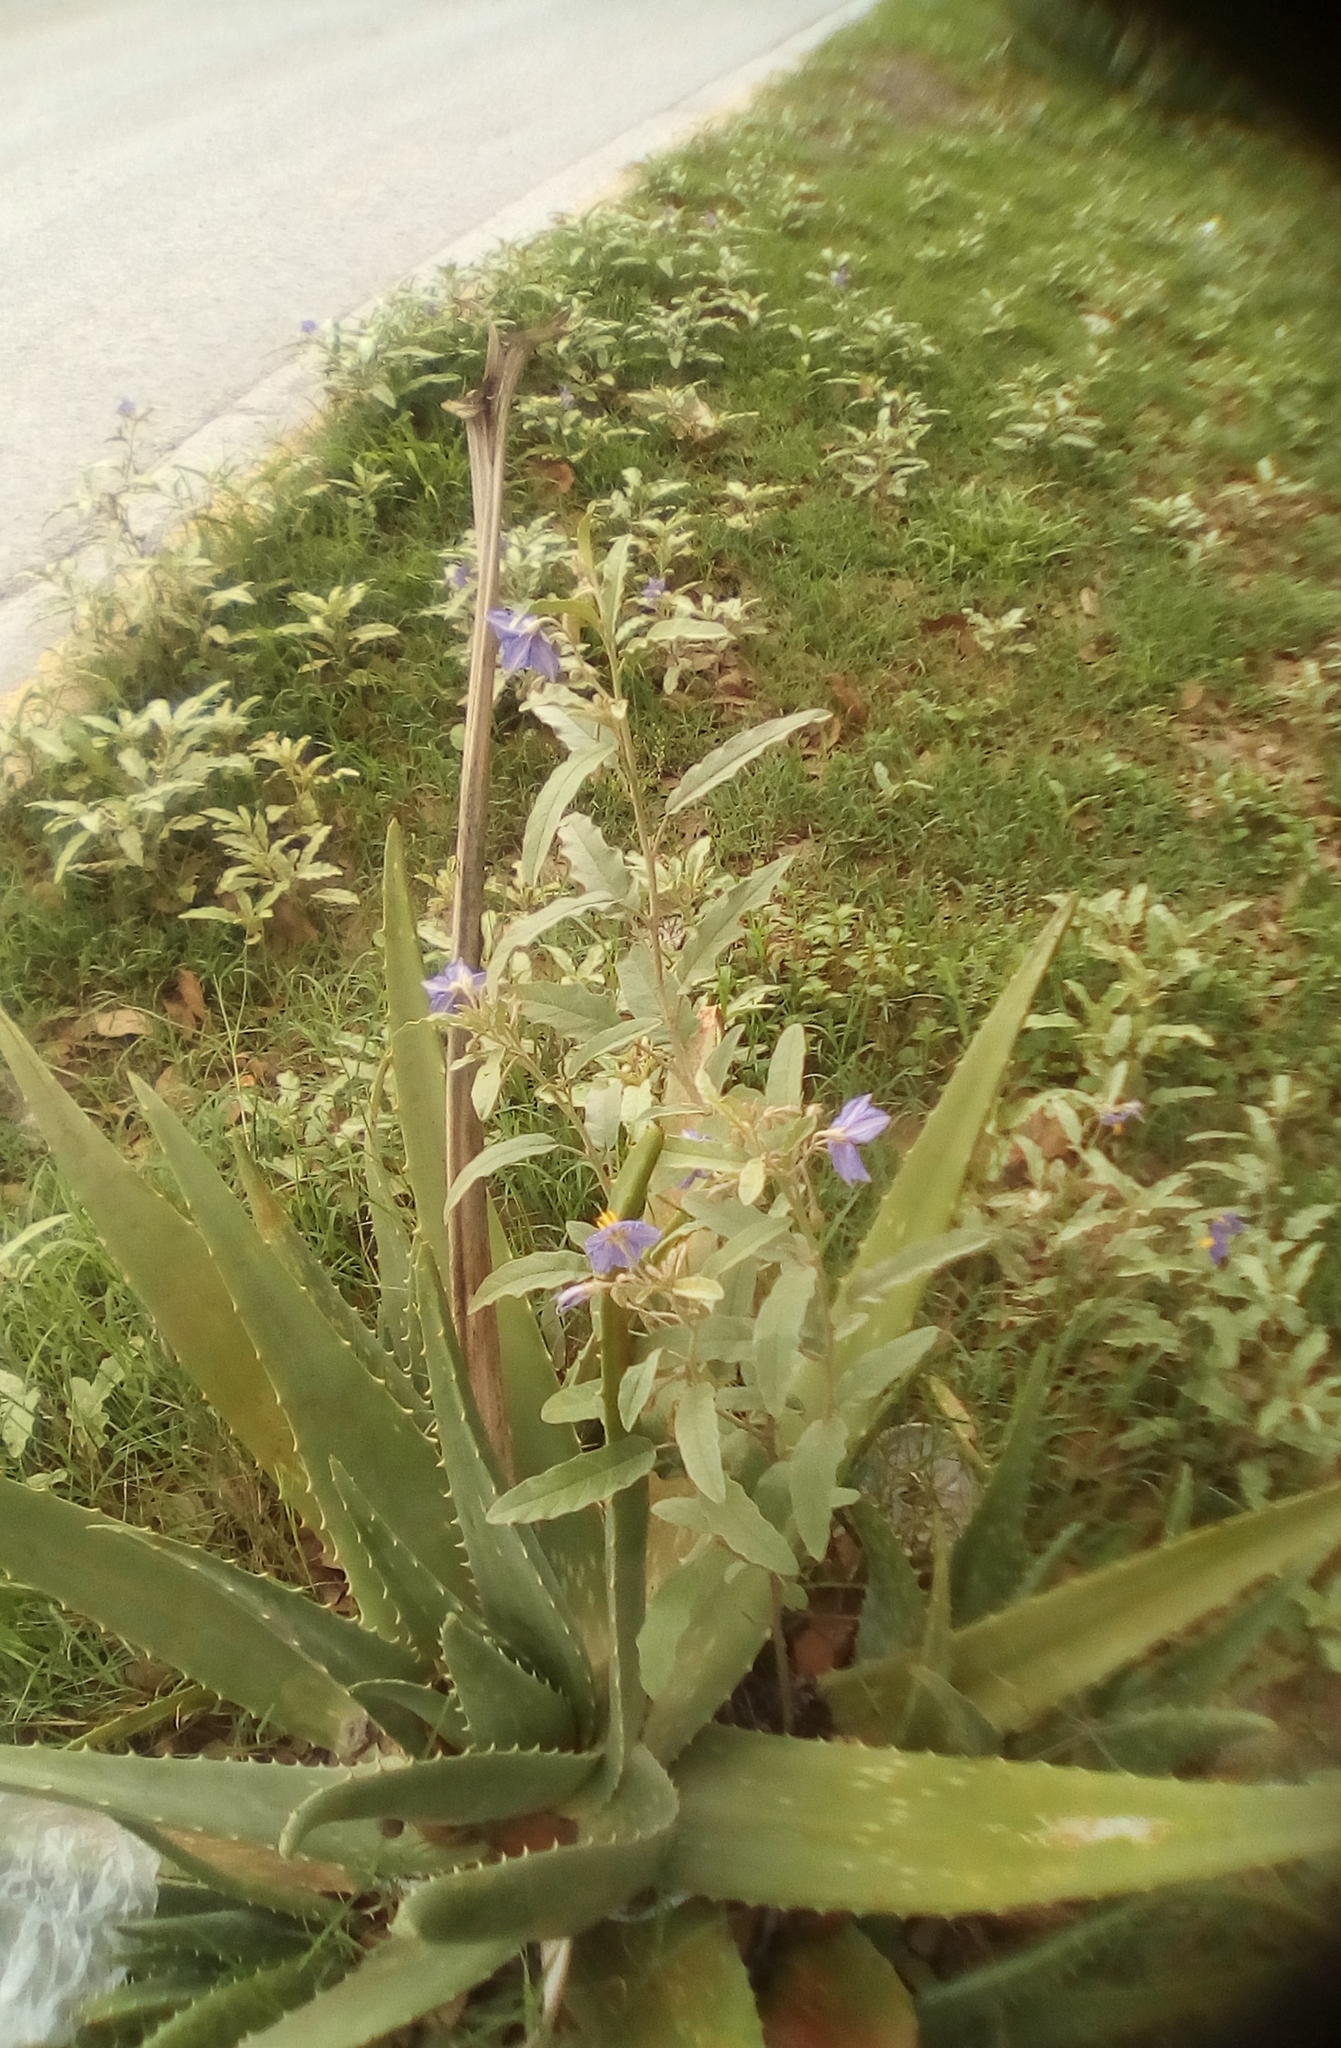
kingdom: Plantae
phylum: Tracheophyta
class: Magnoliopsida
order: Solanales
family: Solanaceae
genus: Solanum
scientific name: Solanum elaeagnifolium
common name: Silverleaf nightshade
